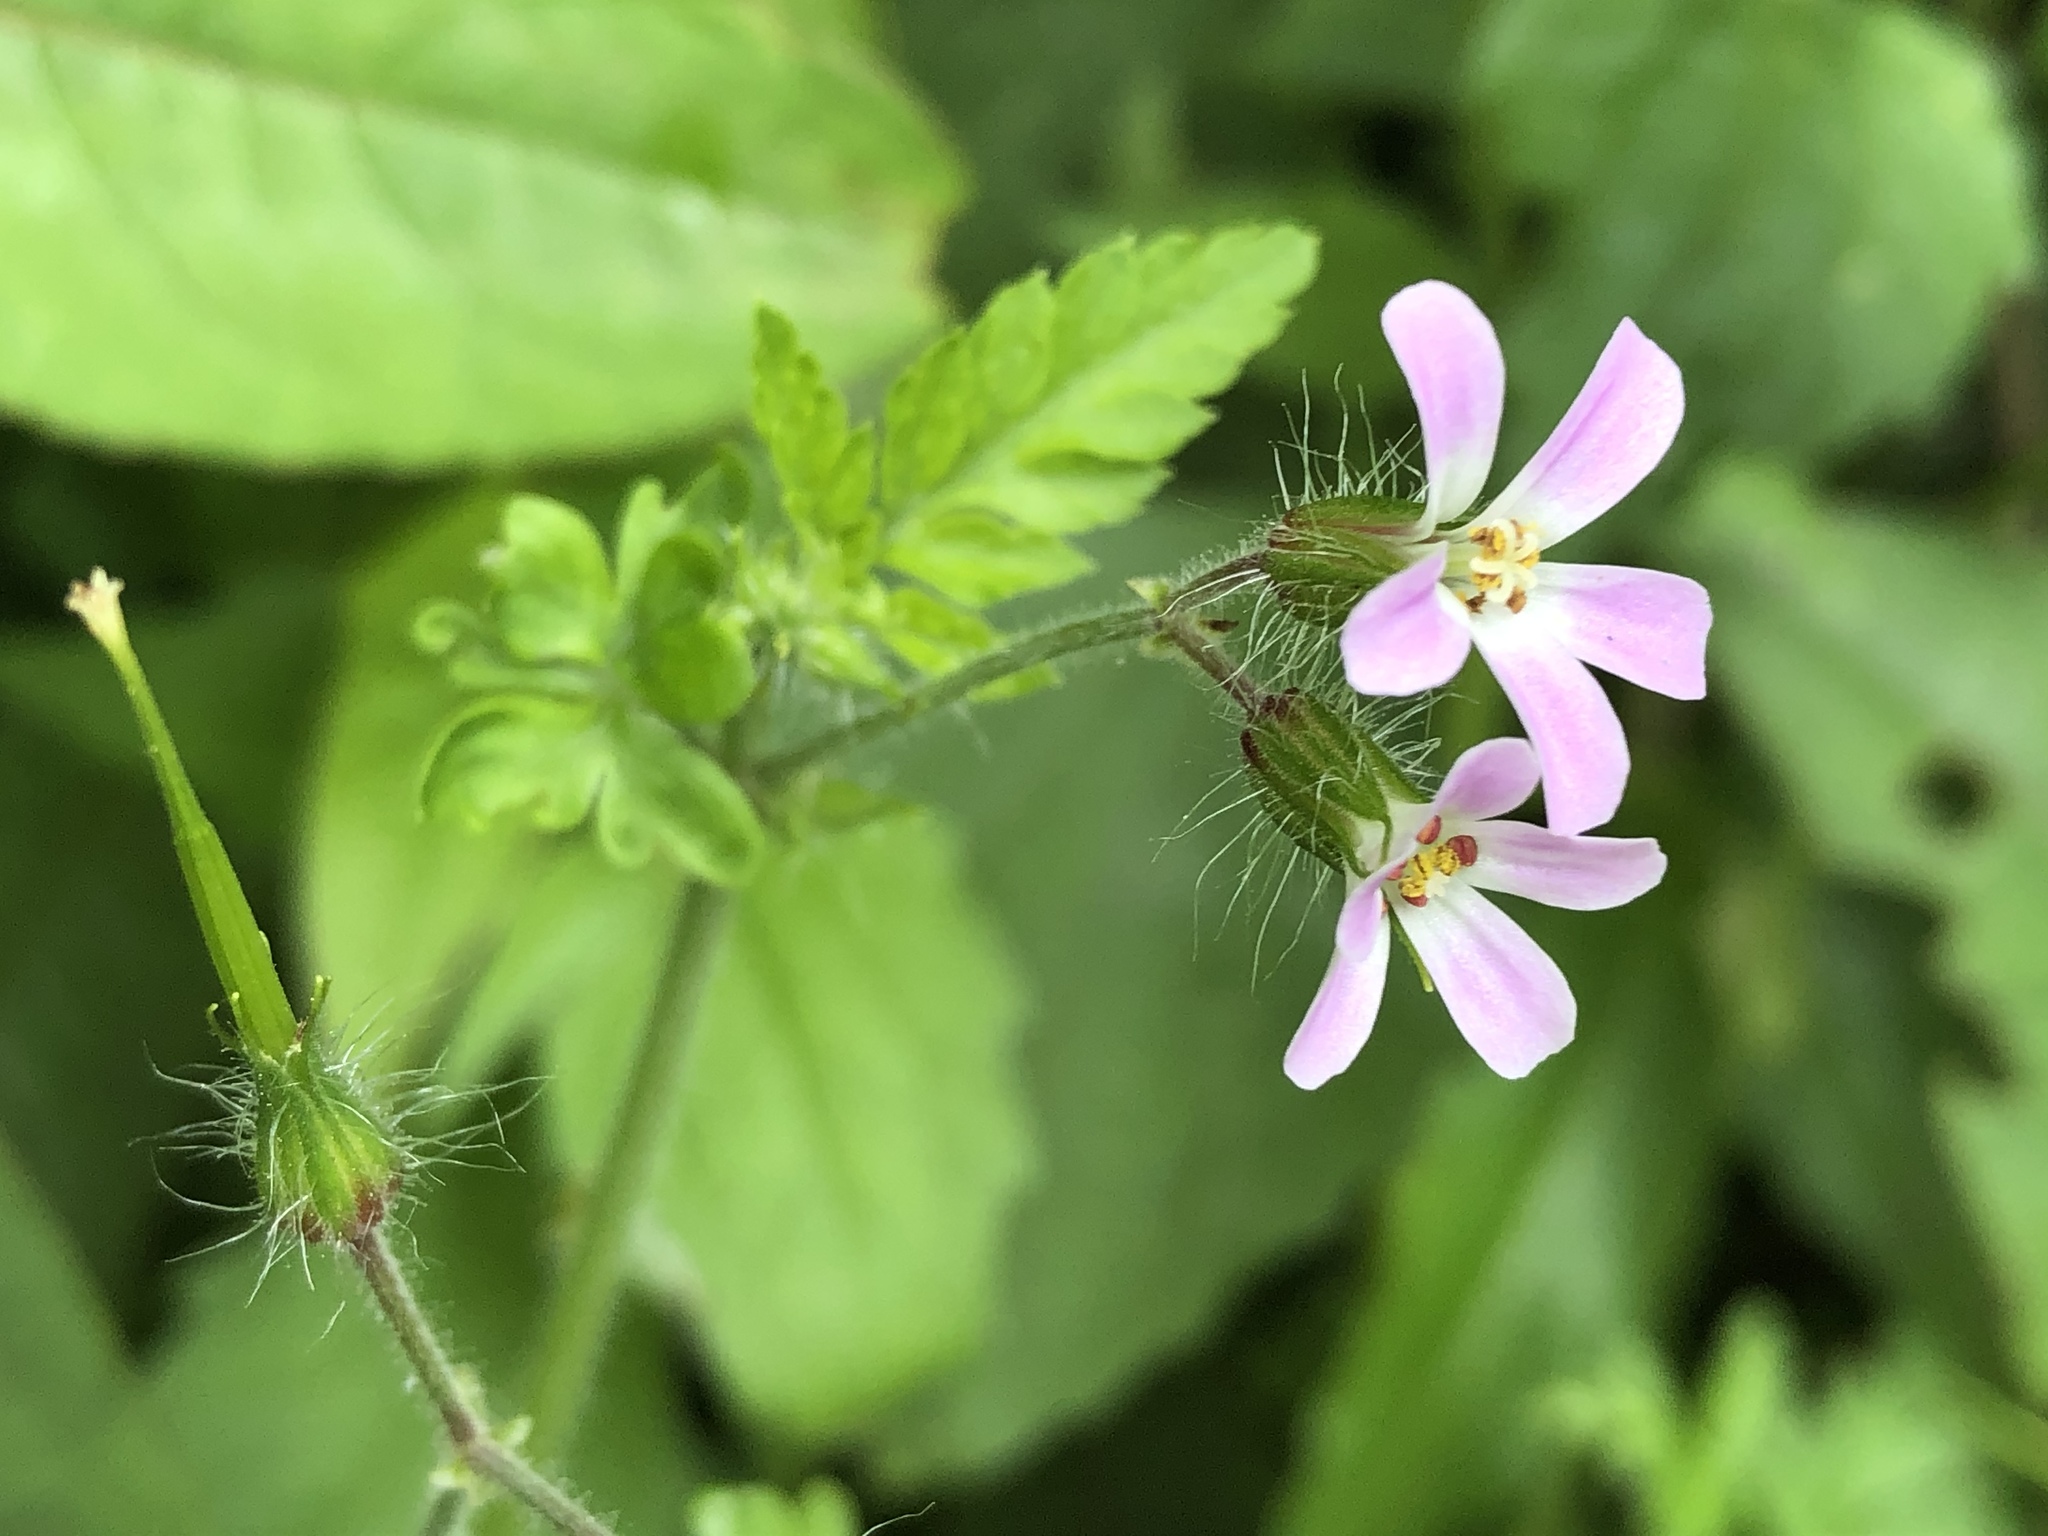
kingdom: Plantae
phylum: Tracheophyta
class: Magnoliopsida
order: Geraniales
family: Geraniaceae
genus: Geranium
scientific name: Geranium robertianum
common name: Herb-robert
